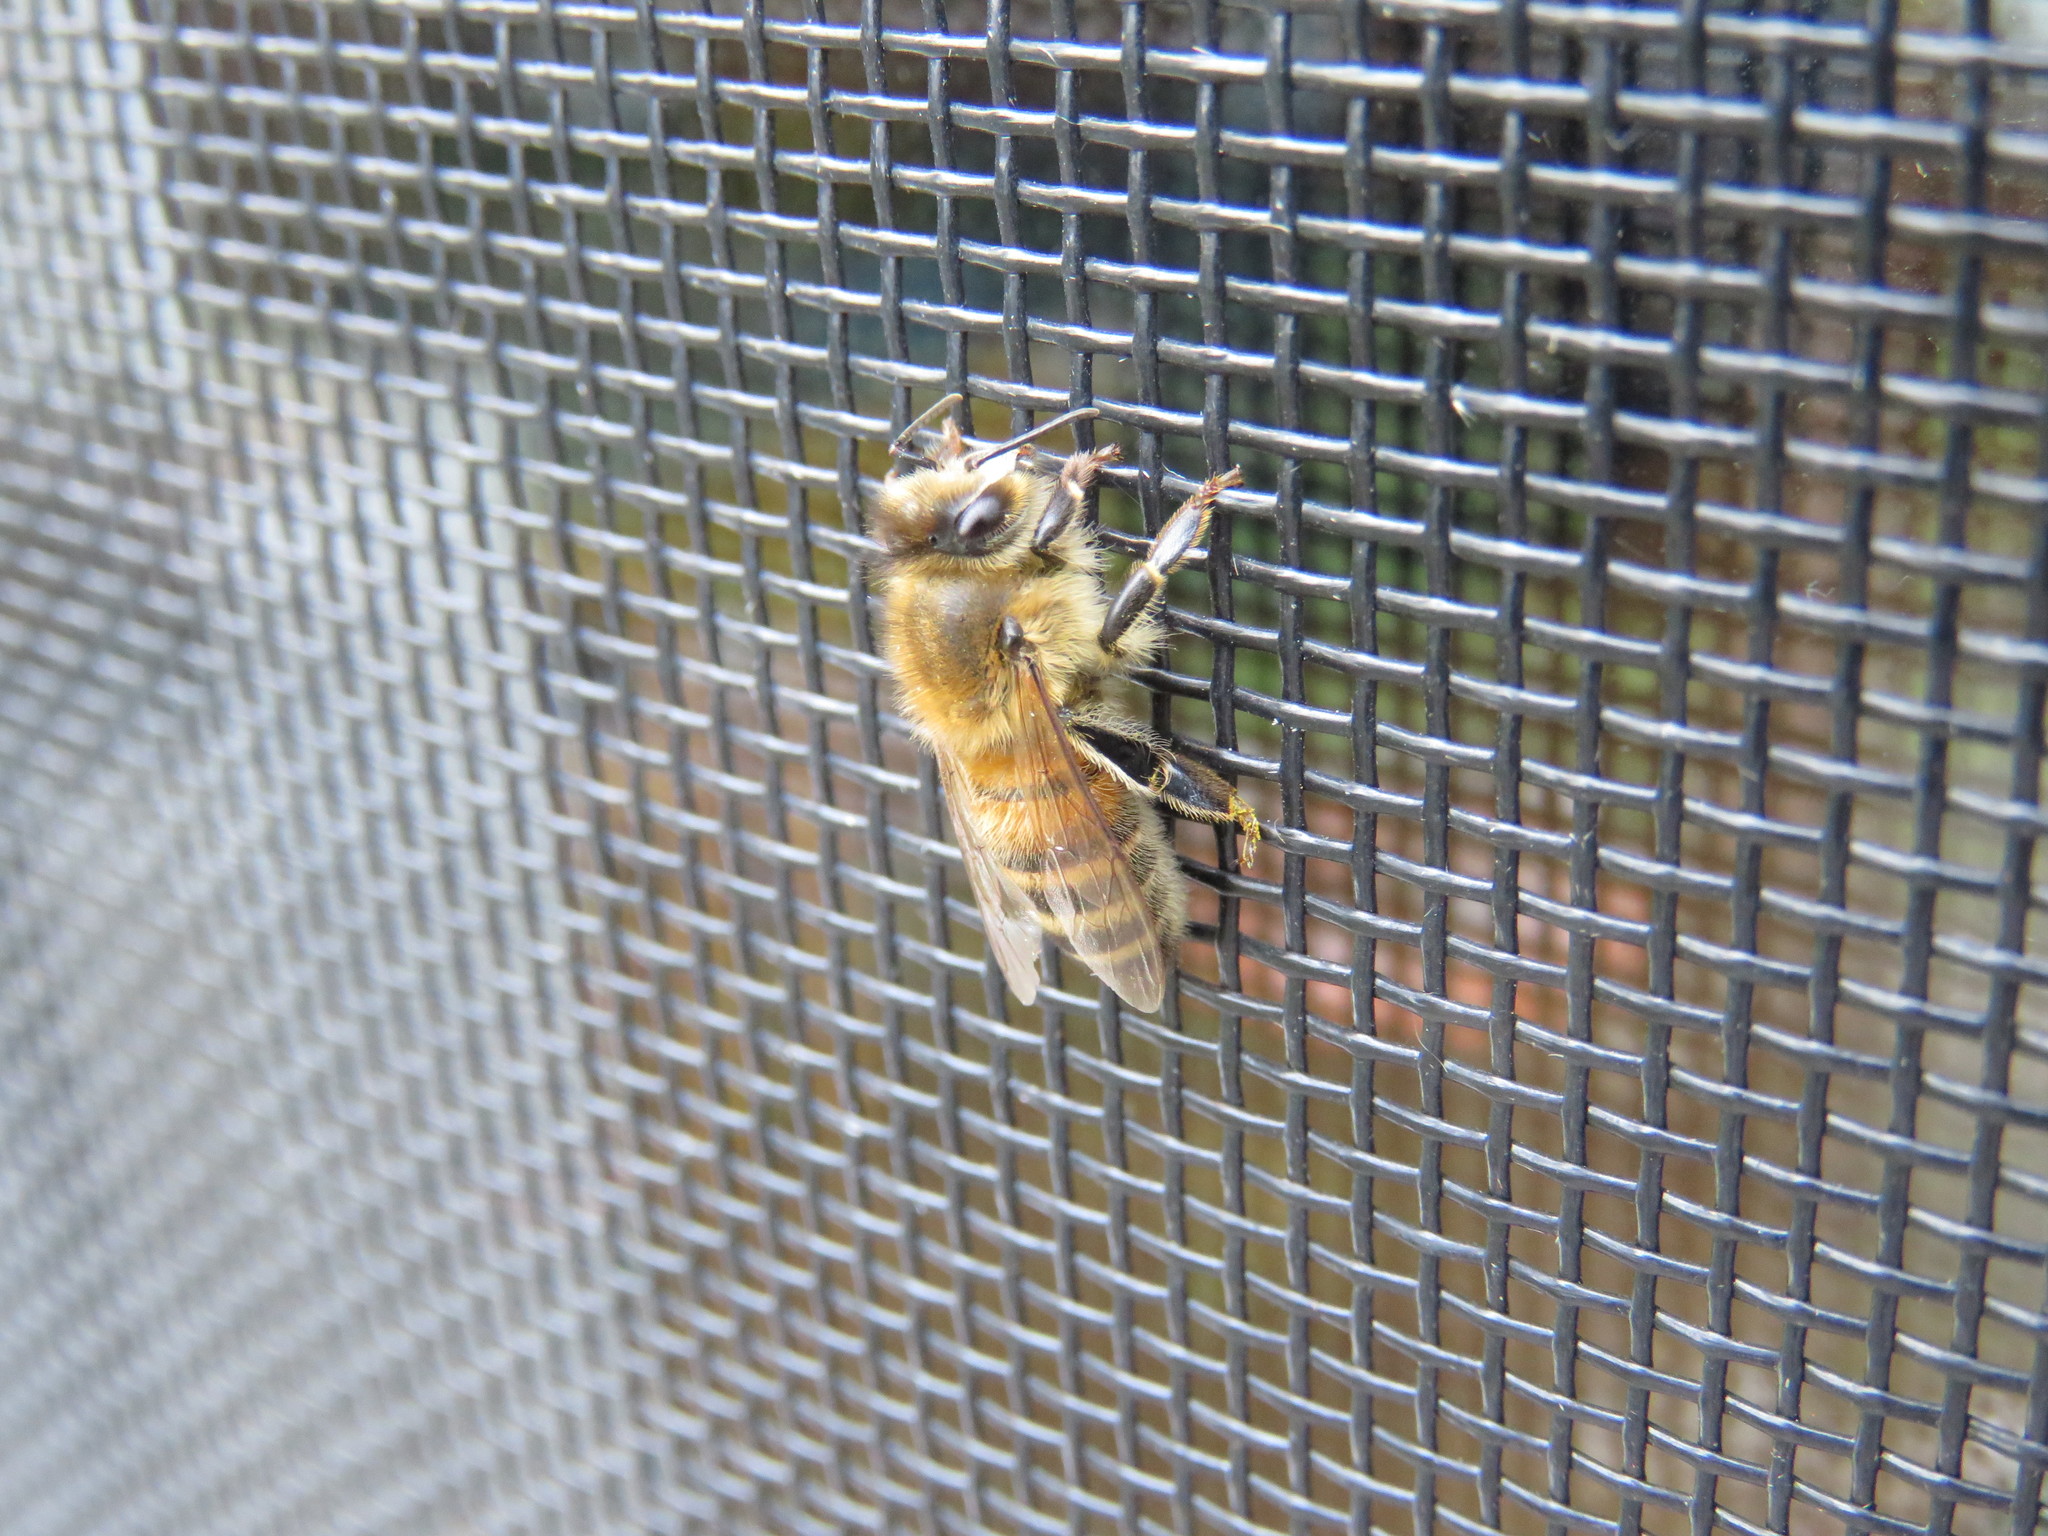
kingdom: Animalia
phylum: Arthropoda
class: Insecta
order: Hymenoptera
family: Apidae
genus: Apis
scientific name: Apis mellifera
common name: Honey bee
